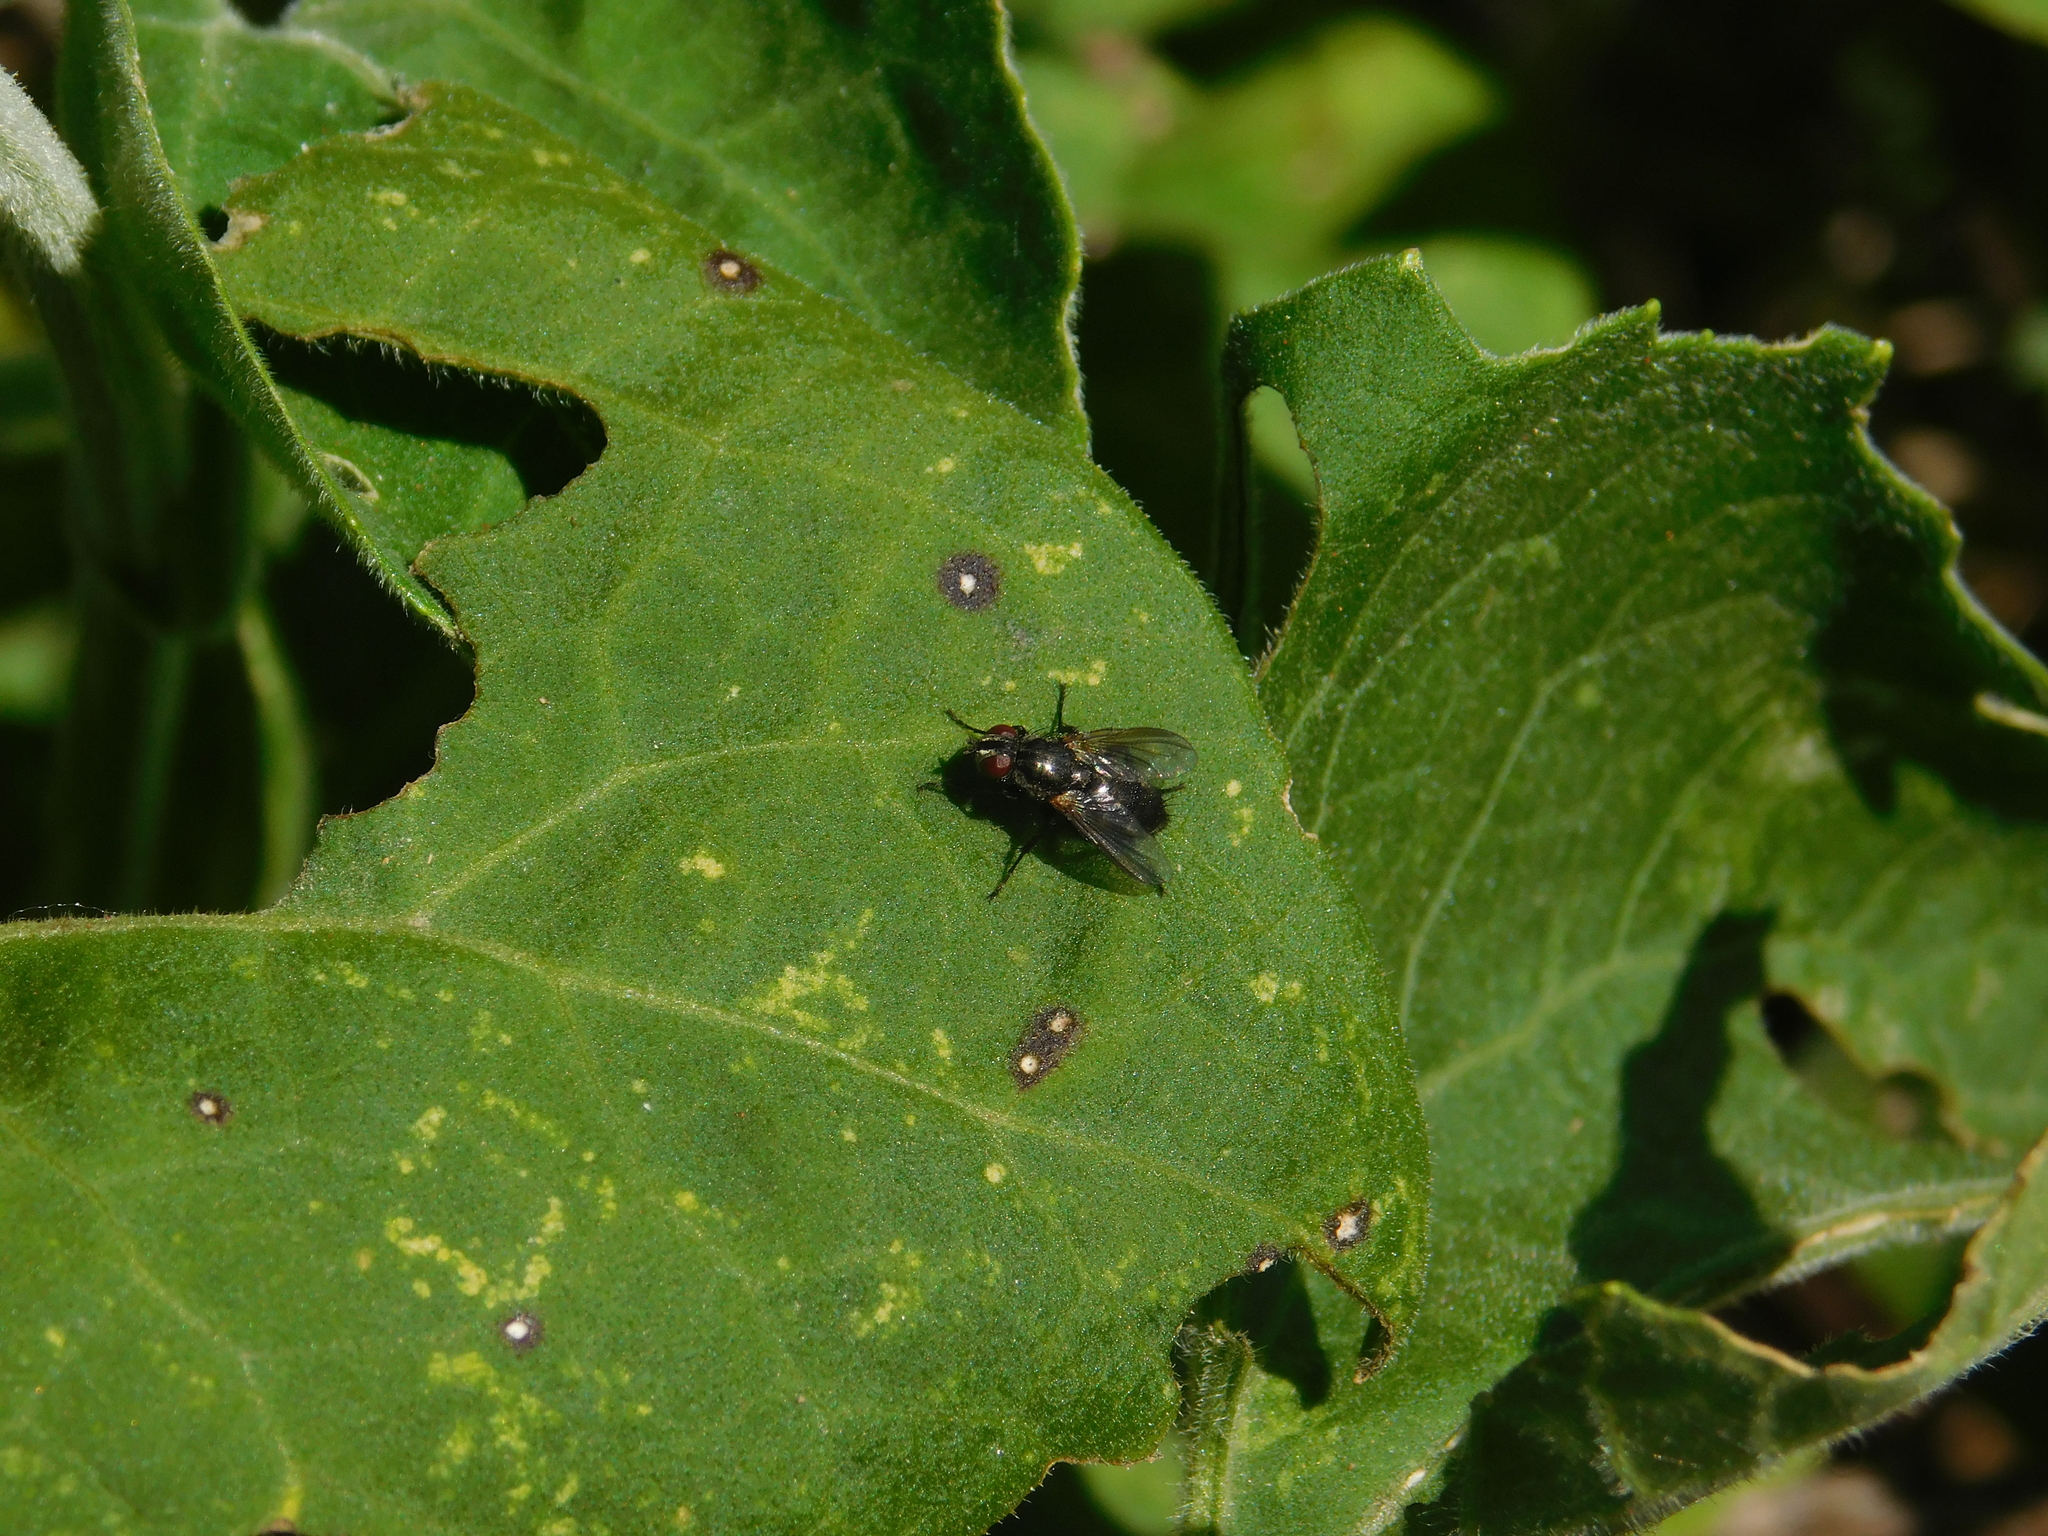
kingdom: Animalia
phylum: Arthropoda
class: Insecta
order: Diptera
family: Calliphoridae
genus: Stevenia
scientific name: Stevenia deceptoria
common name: Grizzled woodlouse-fly
